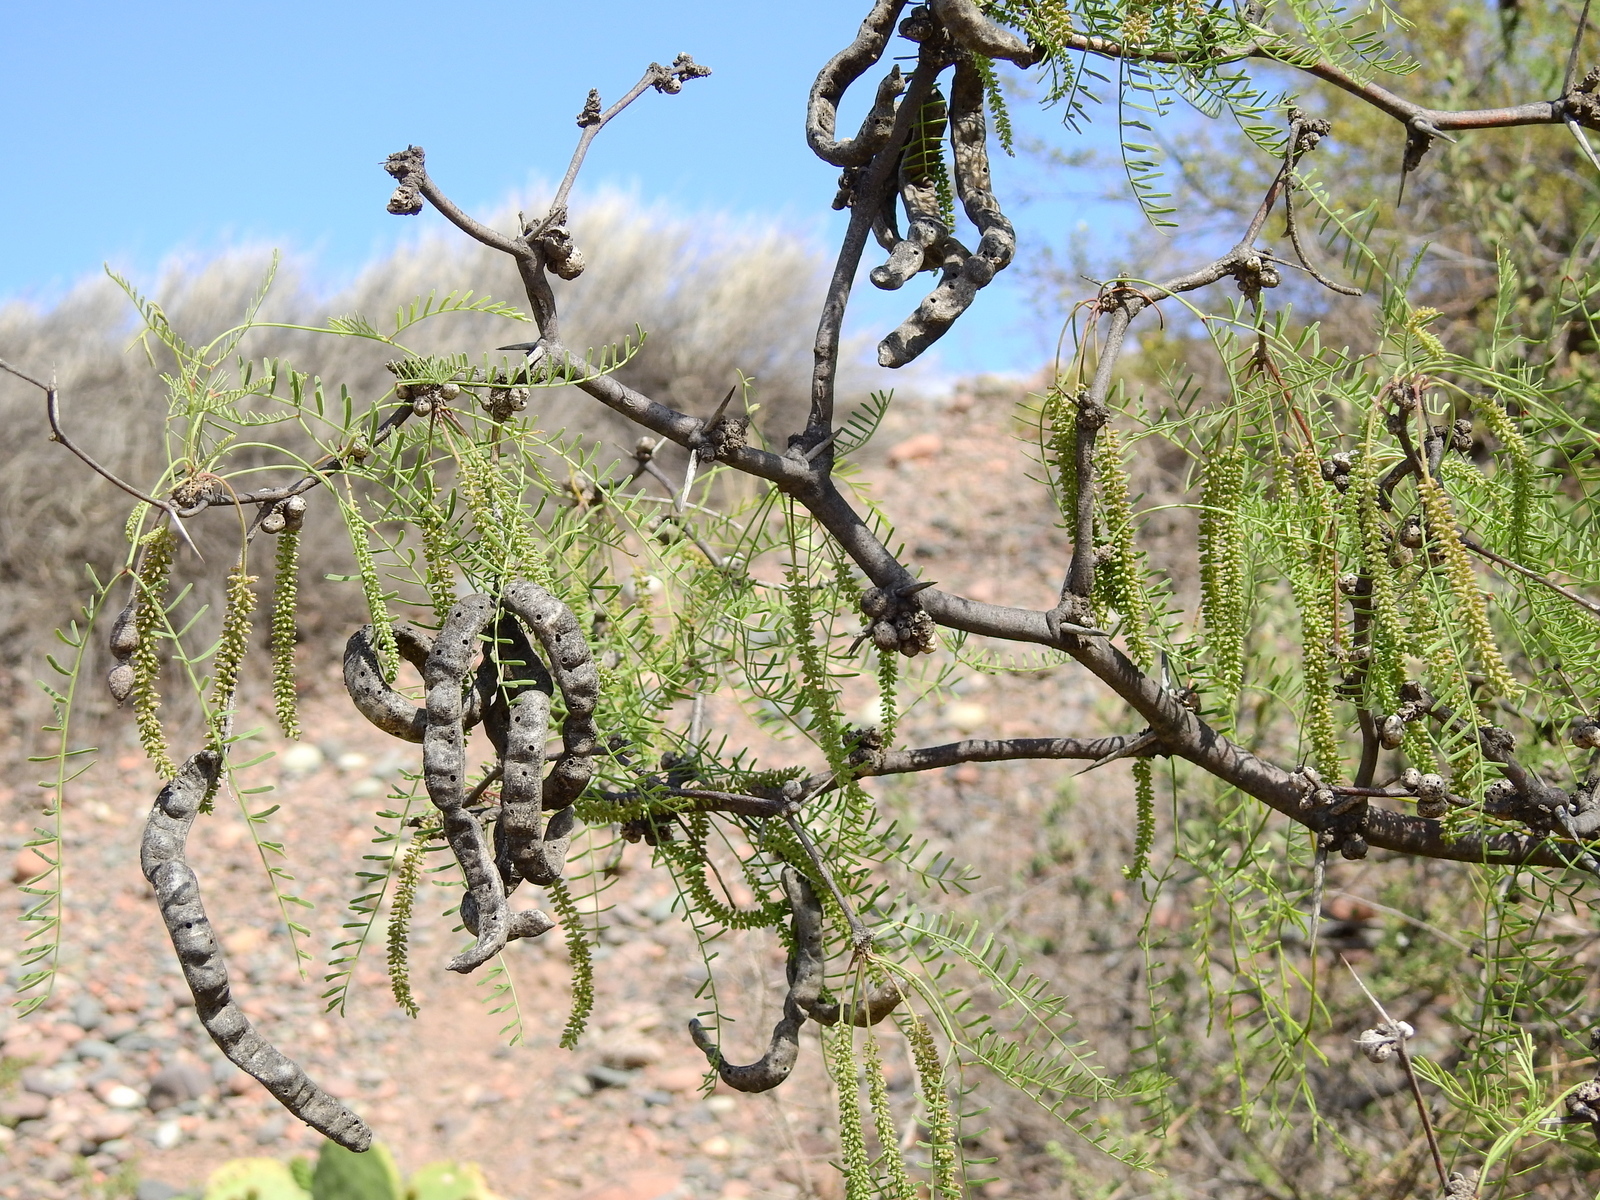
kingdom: Plantae
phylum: Tracheophyta
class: Magnoliopsida
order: Fabales
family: Fabaceae
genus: Prosopis
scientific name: Prosopis flexuosa
